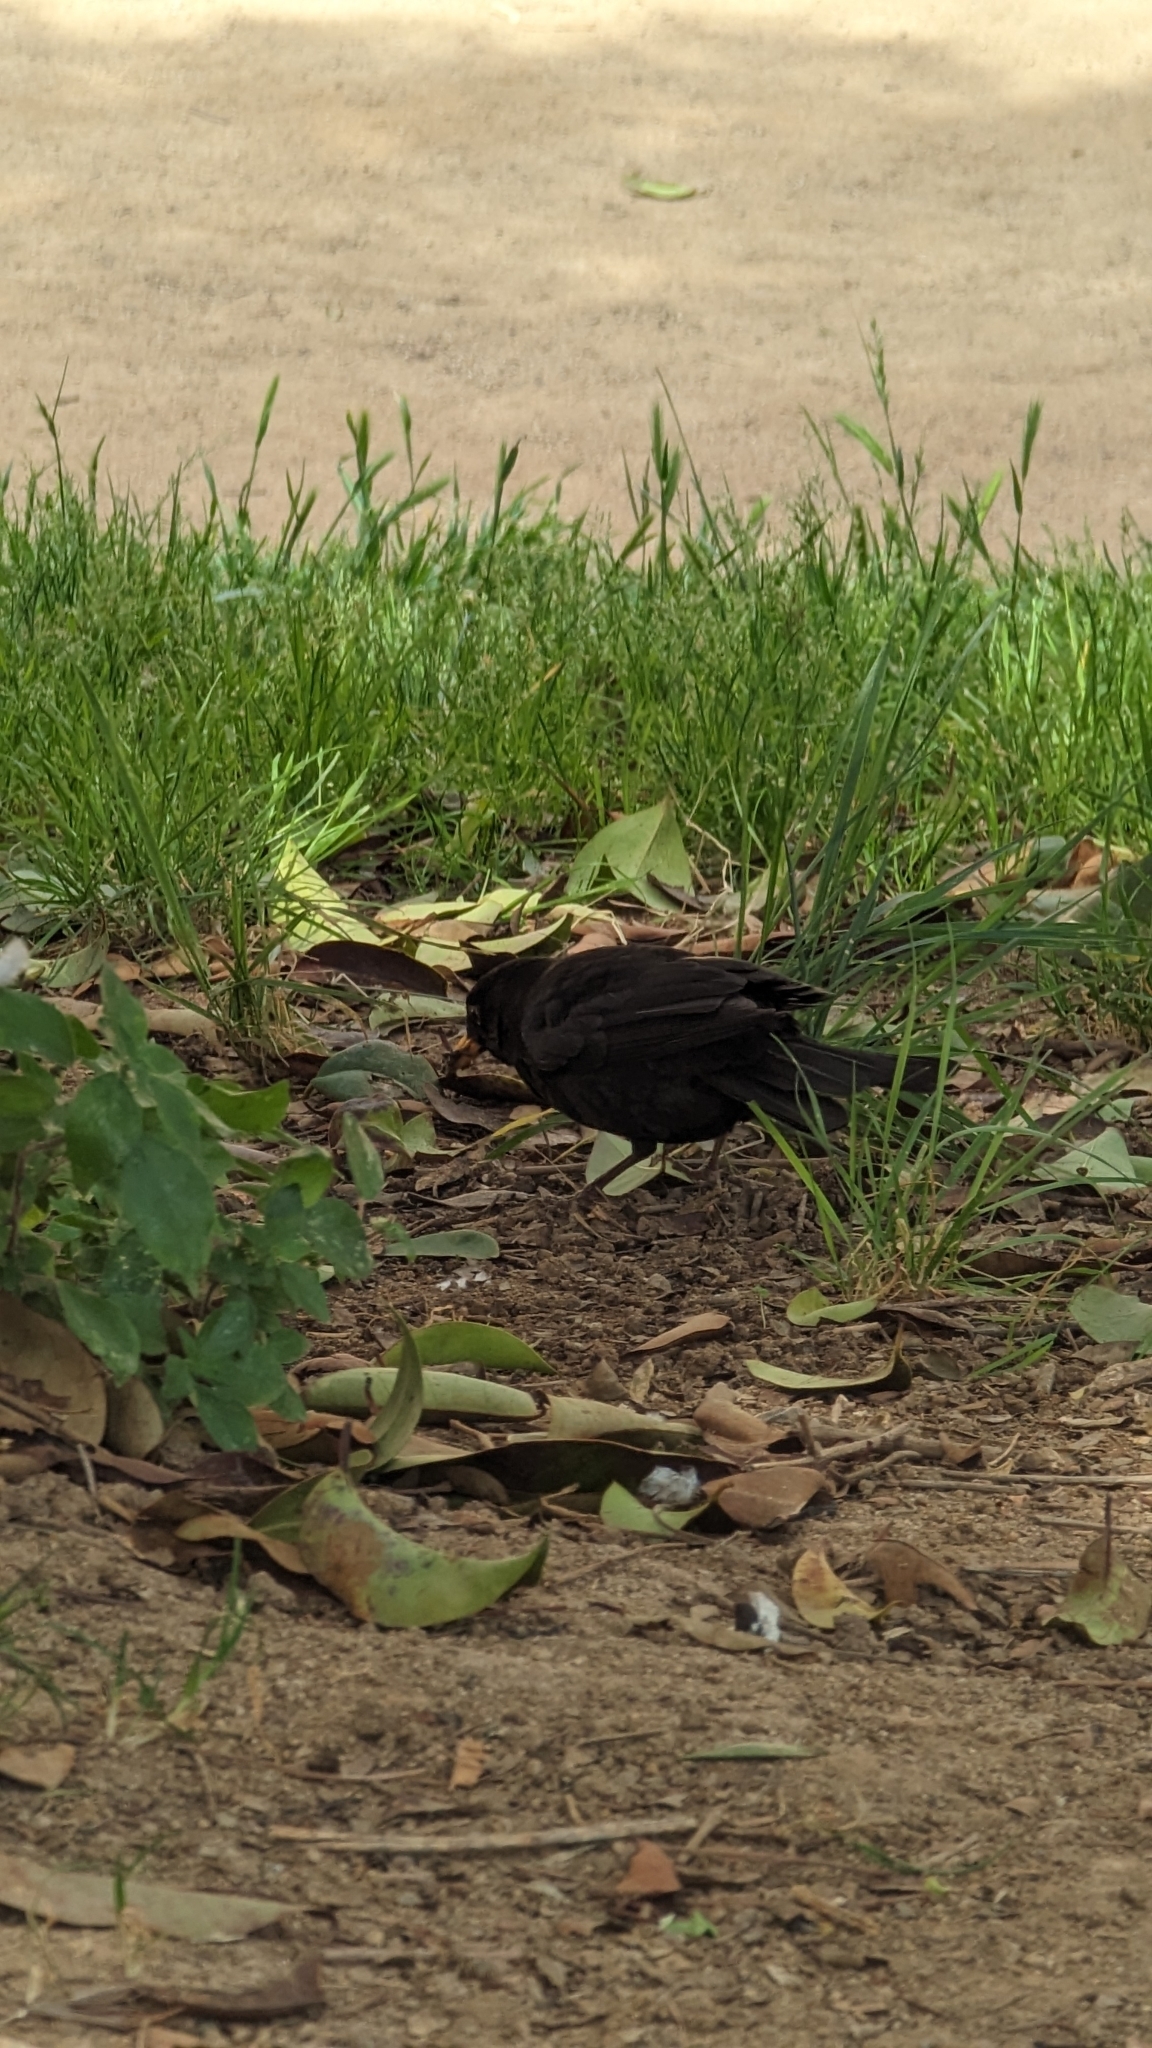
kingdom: Animalia
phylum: Chordata
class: Aves
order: Passeriformes
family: Turdidae
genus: Turdus
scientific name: Turdus merula
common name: Common blackbird
